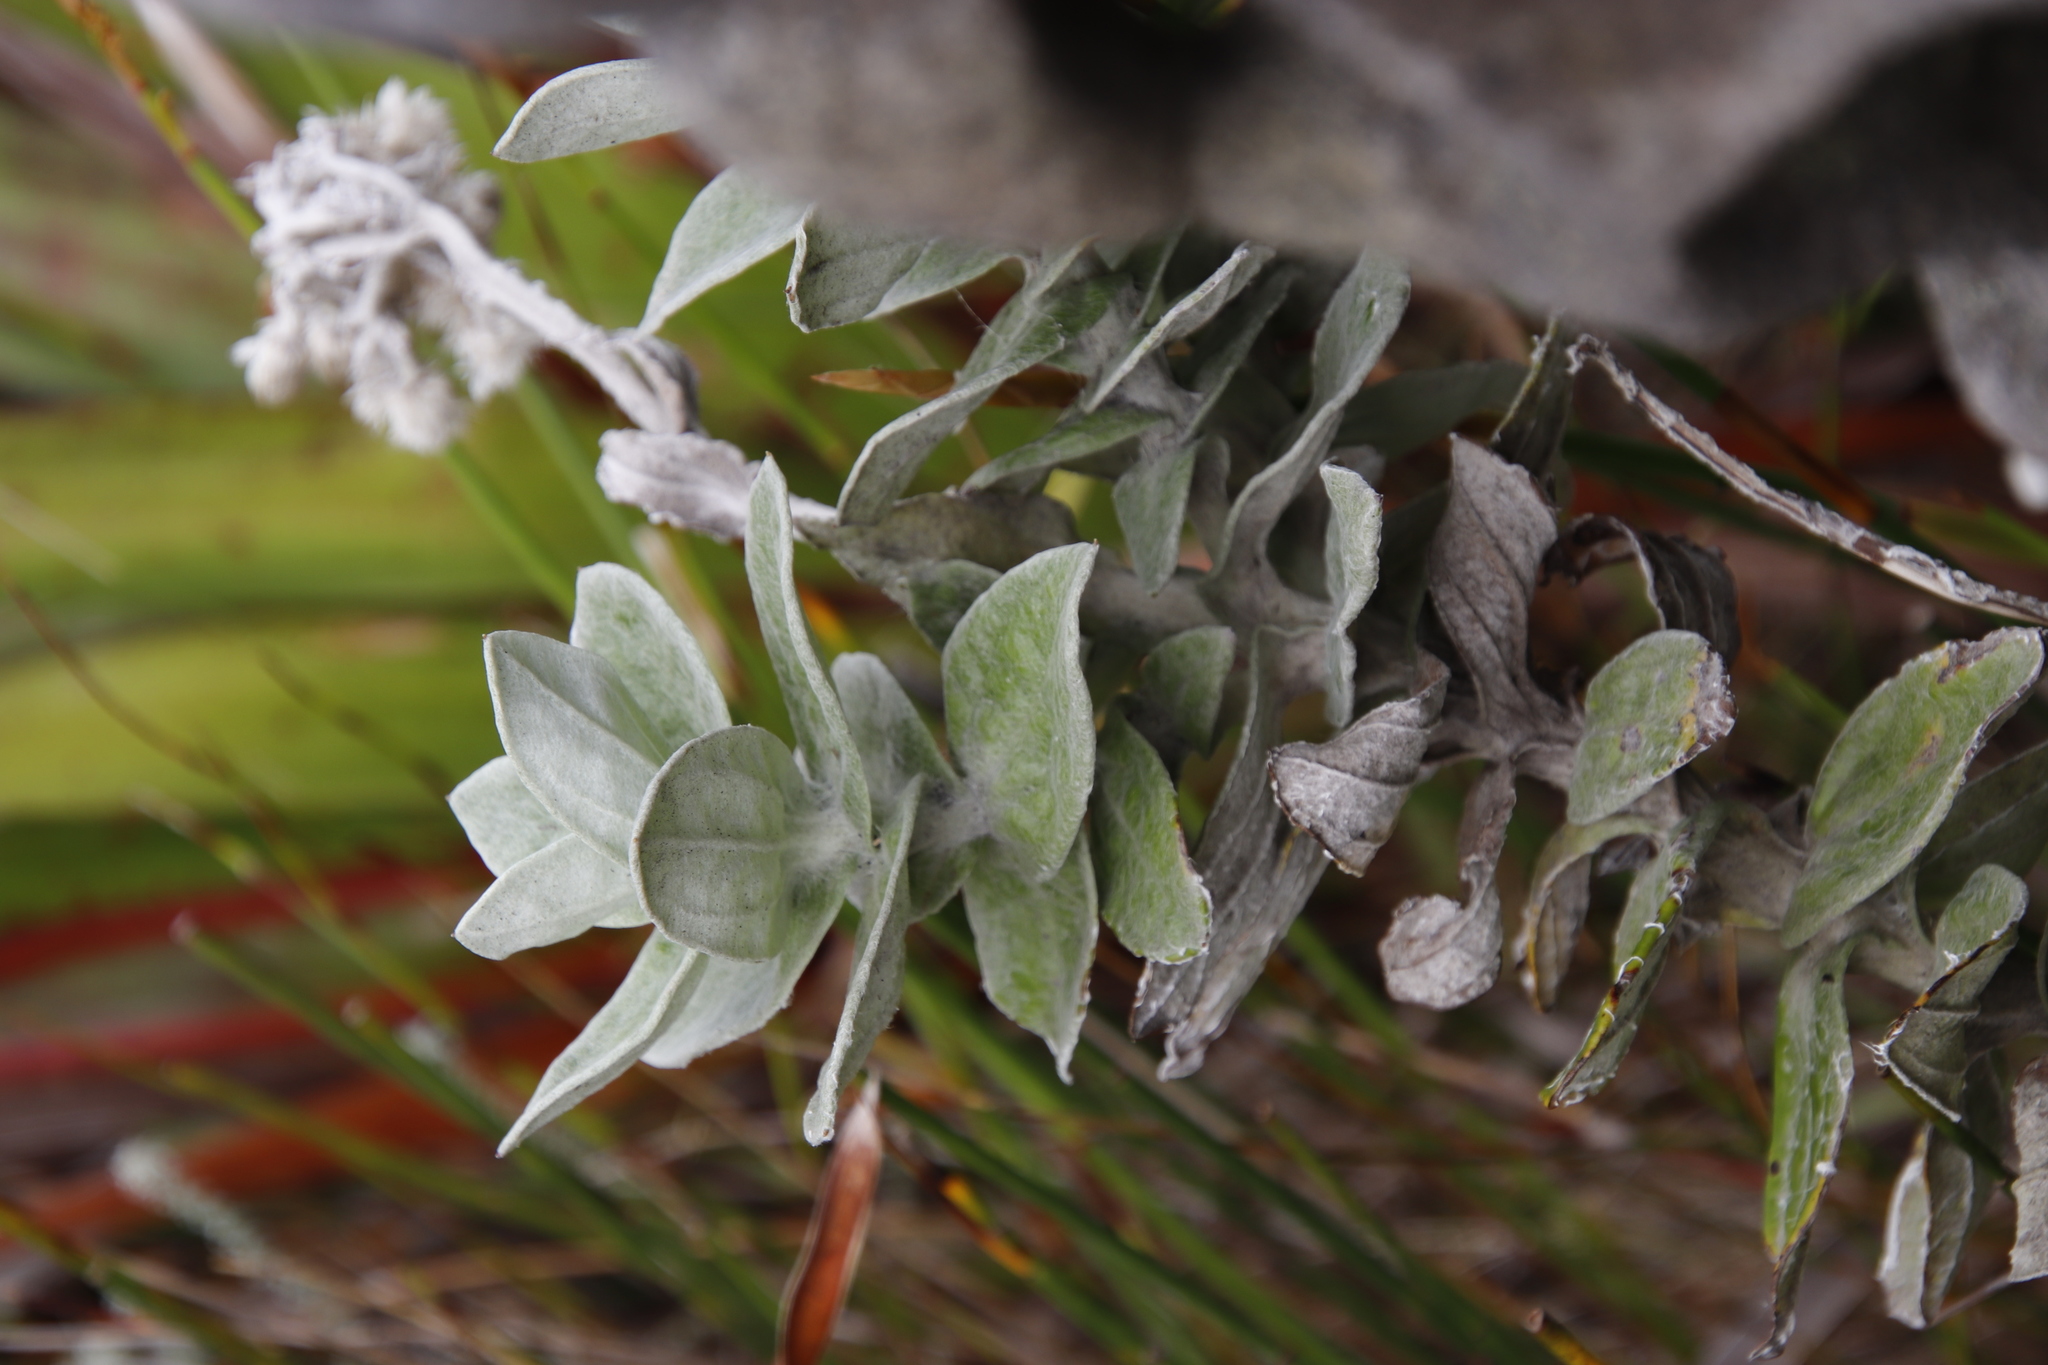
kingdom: Plantae
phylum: Tracheophyta
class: Magnoliopsida
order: Asterales
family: Asteraceae
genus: Helichrysum
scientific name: Helichrysum fruticans
